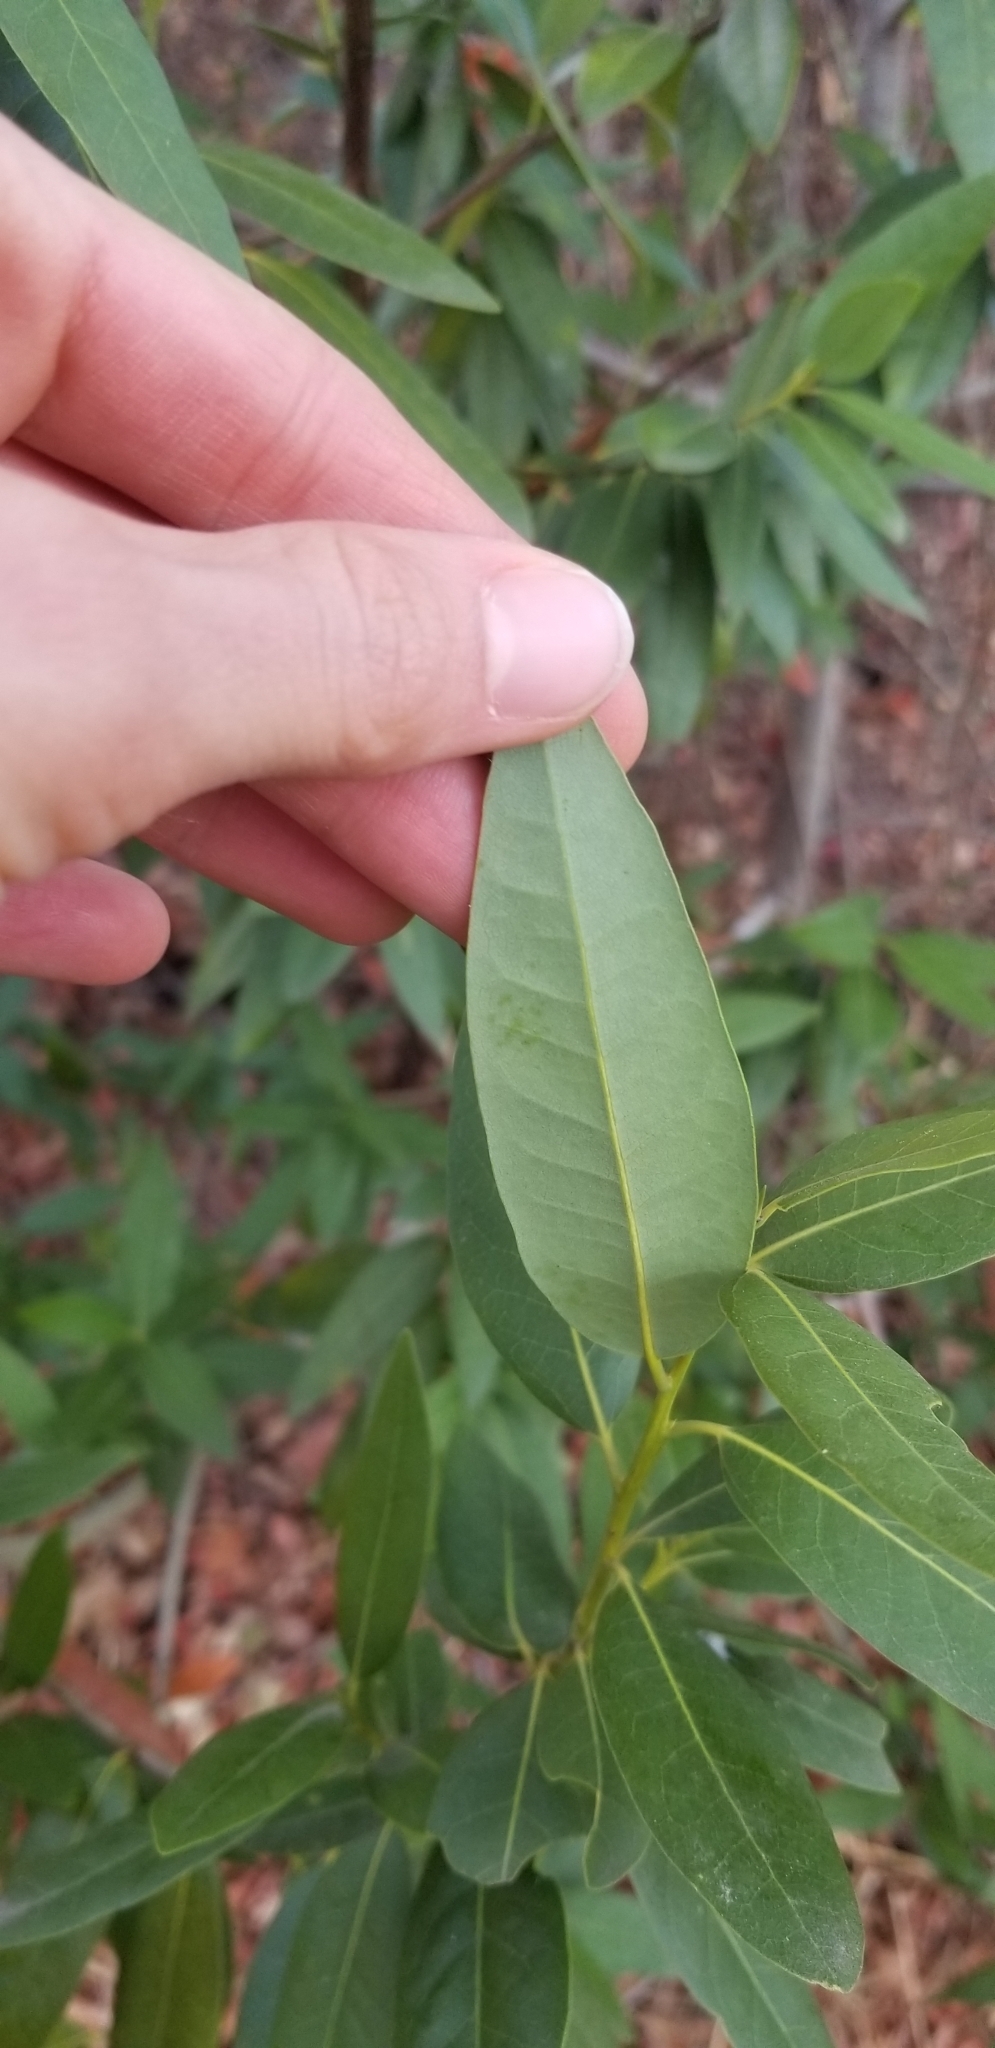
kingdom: Plantae
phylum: Tracheophyta
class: Magnoliopsida
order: Laurales
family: Lauraceae
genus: Umbellularia
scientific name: Umbellularia californica
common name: California bay
